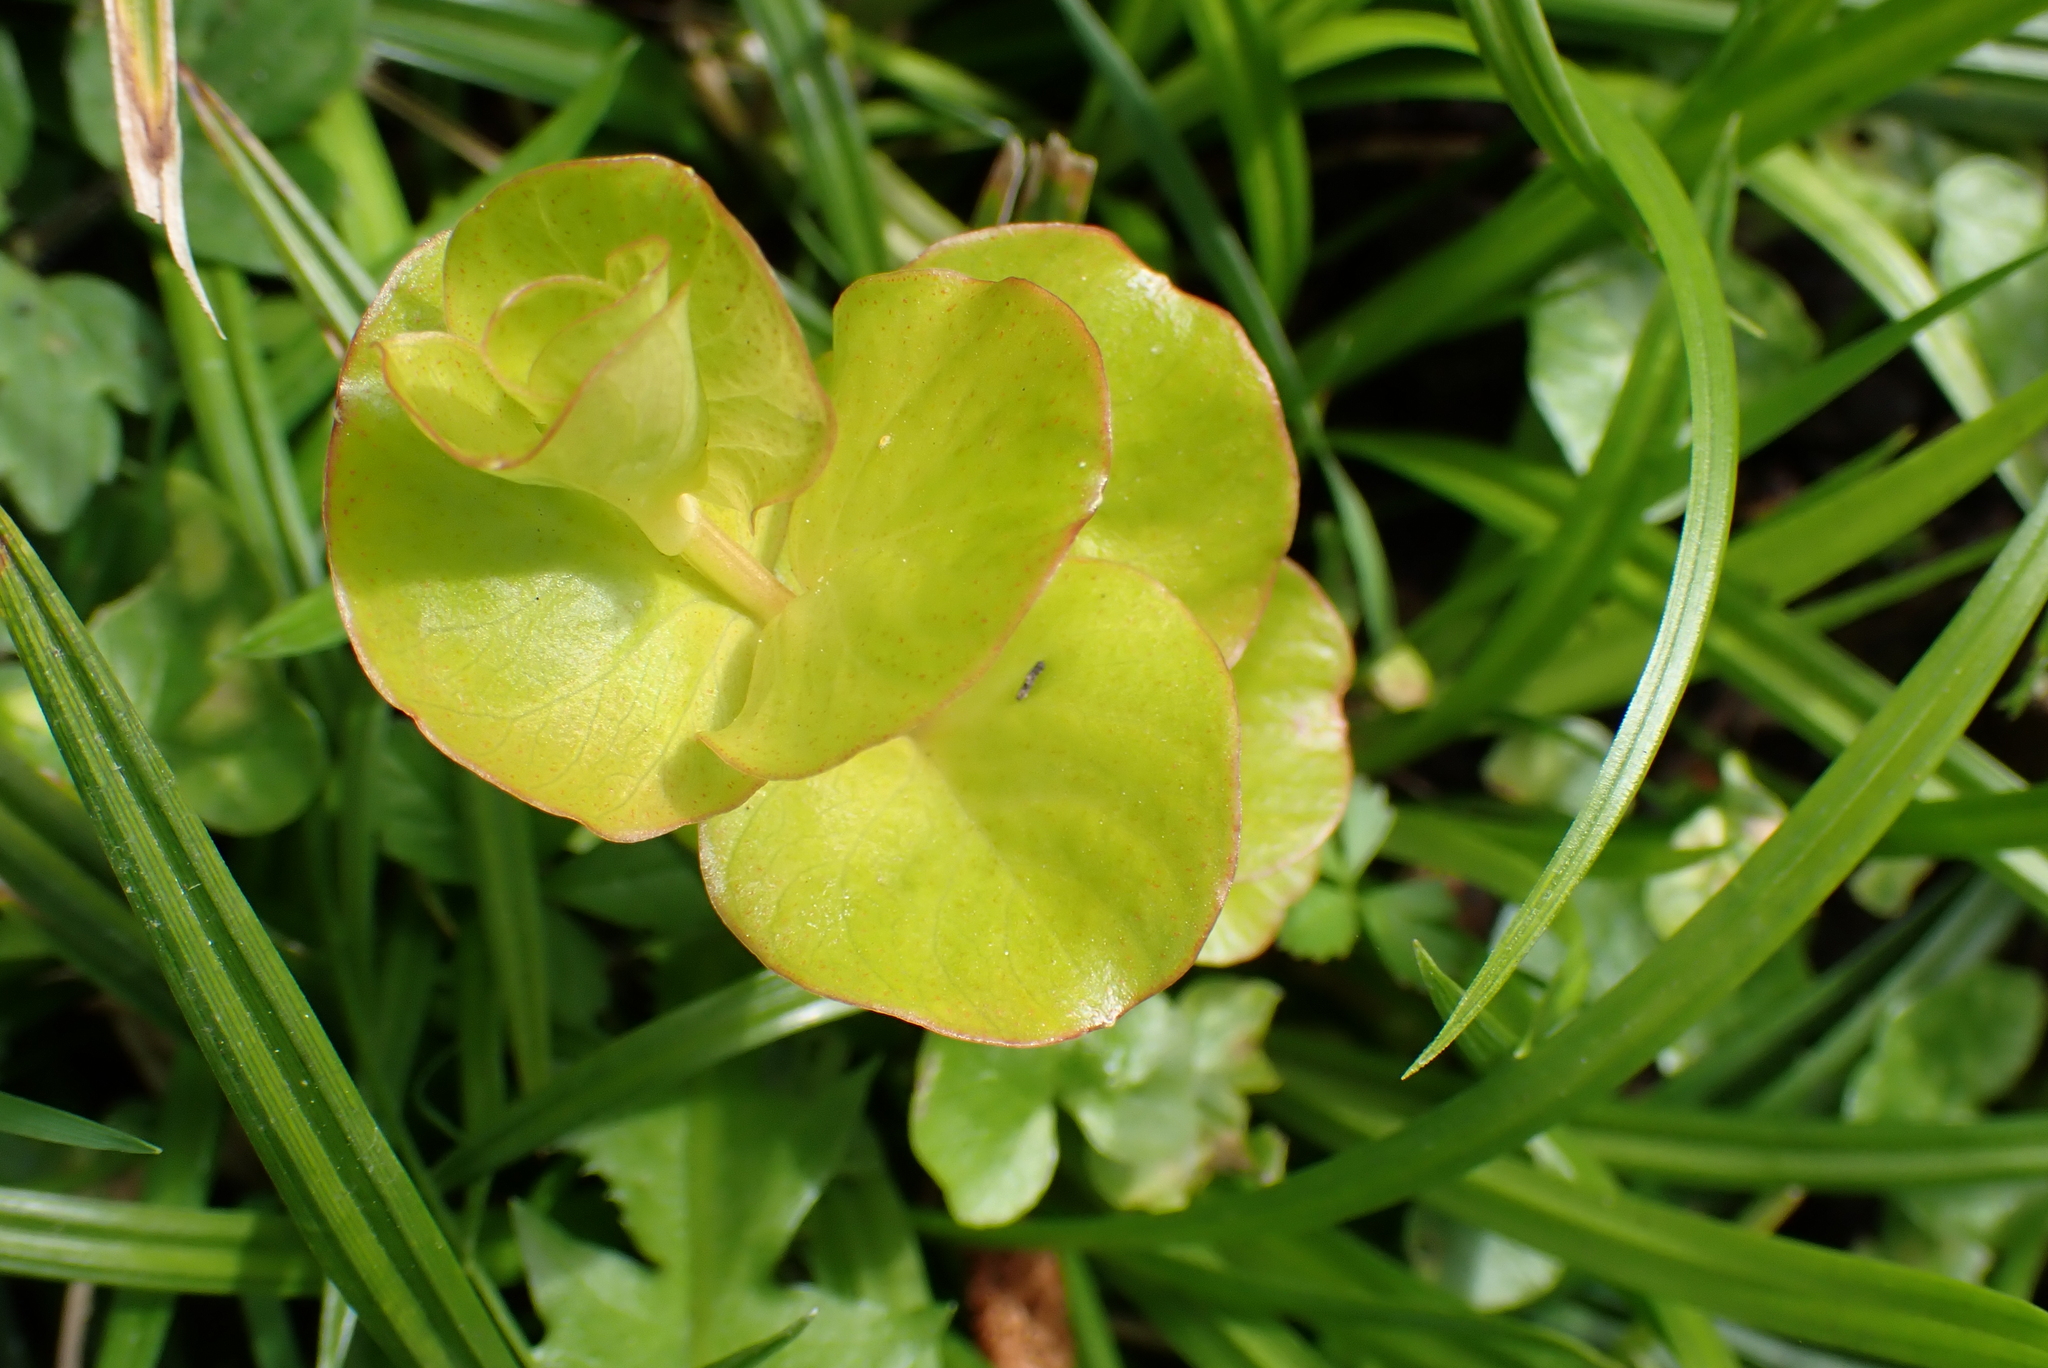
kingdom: Plantae
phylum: Tracheophyta
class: Magnoliopsida
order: Ericales
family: Primulaceae
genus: Lysimachia
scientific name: Lysimachia nummularia
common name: Moneywort
